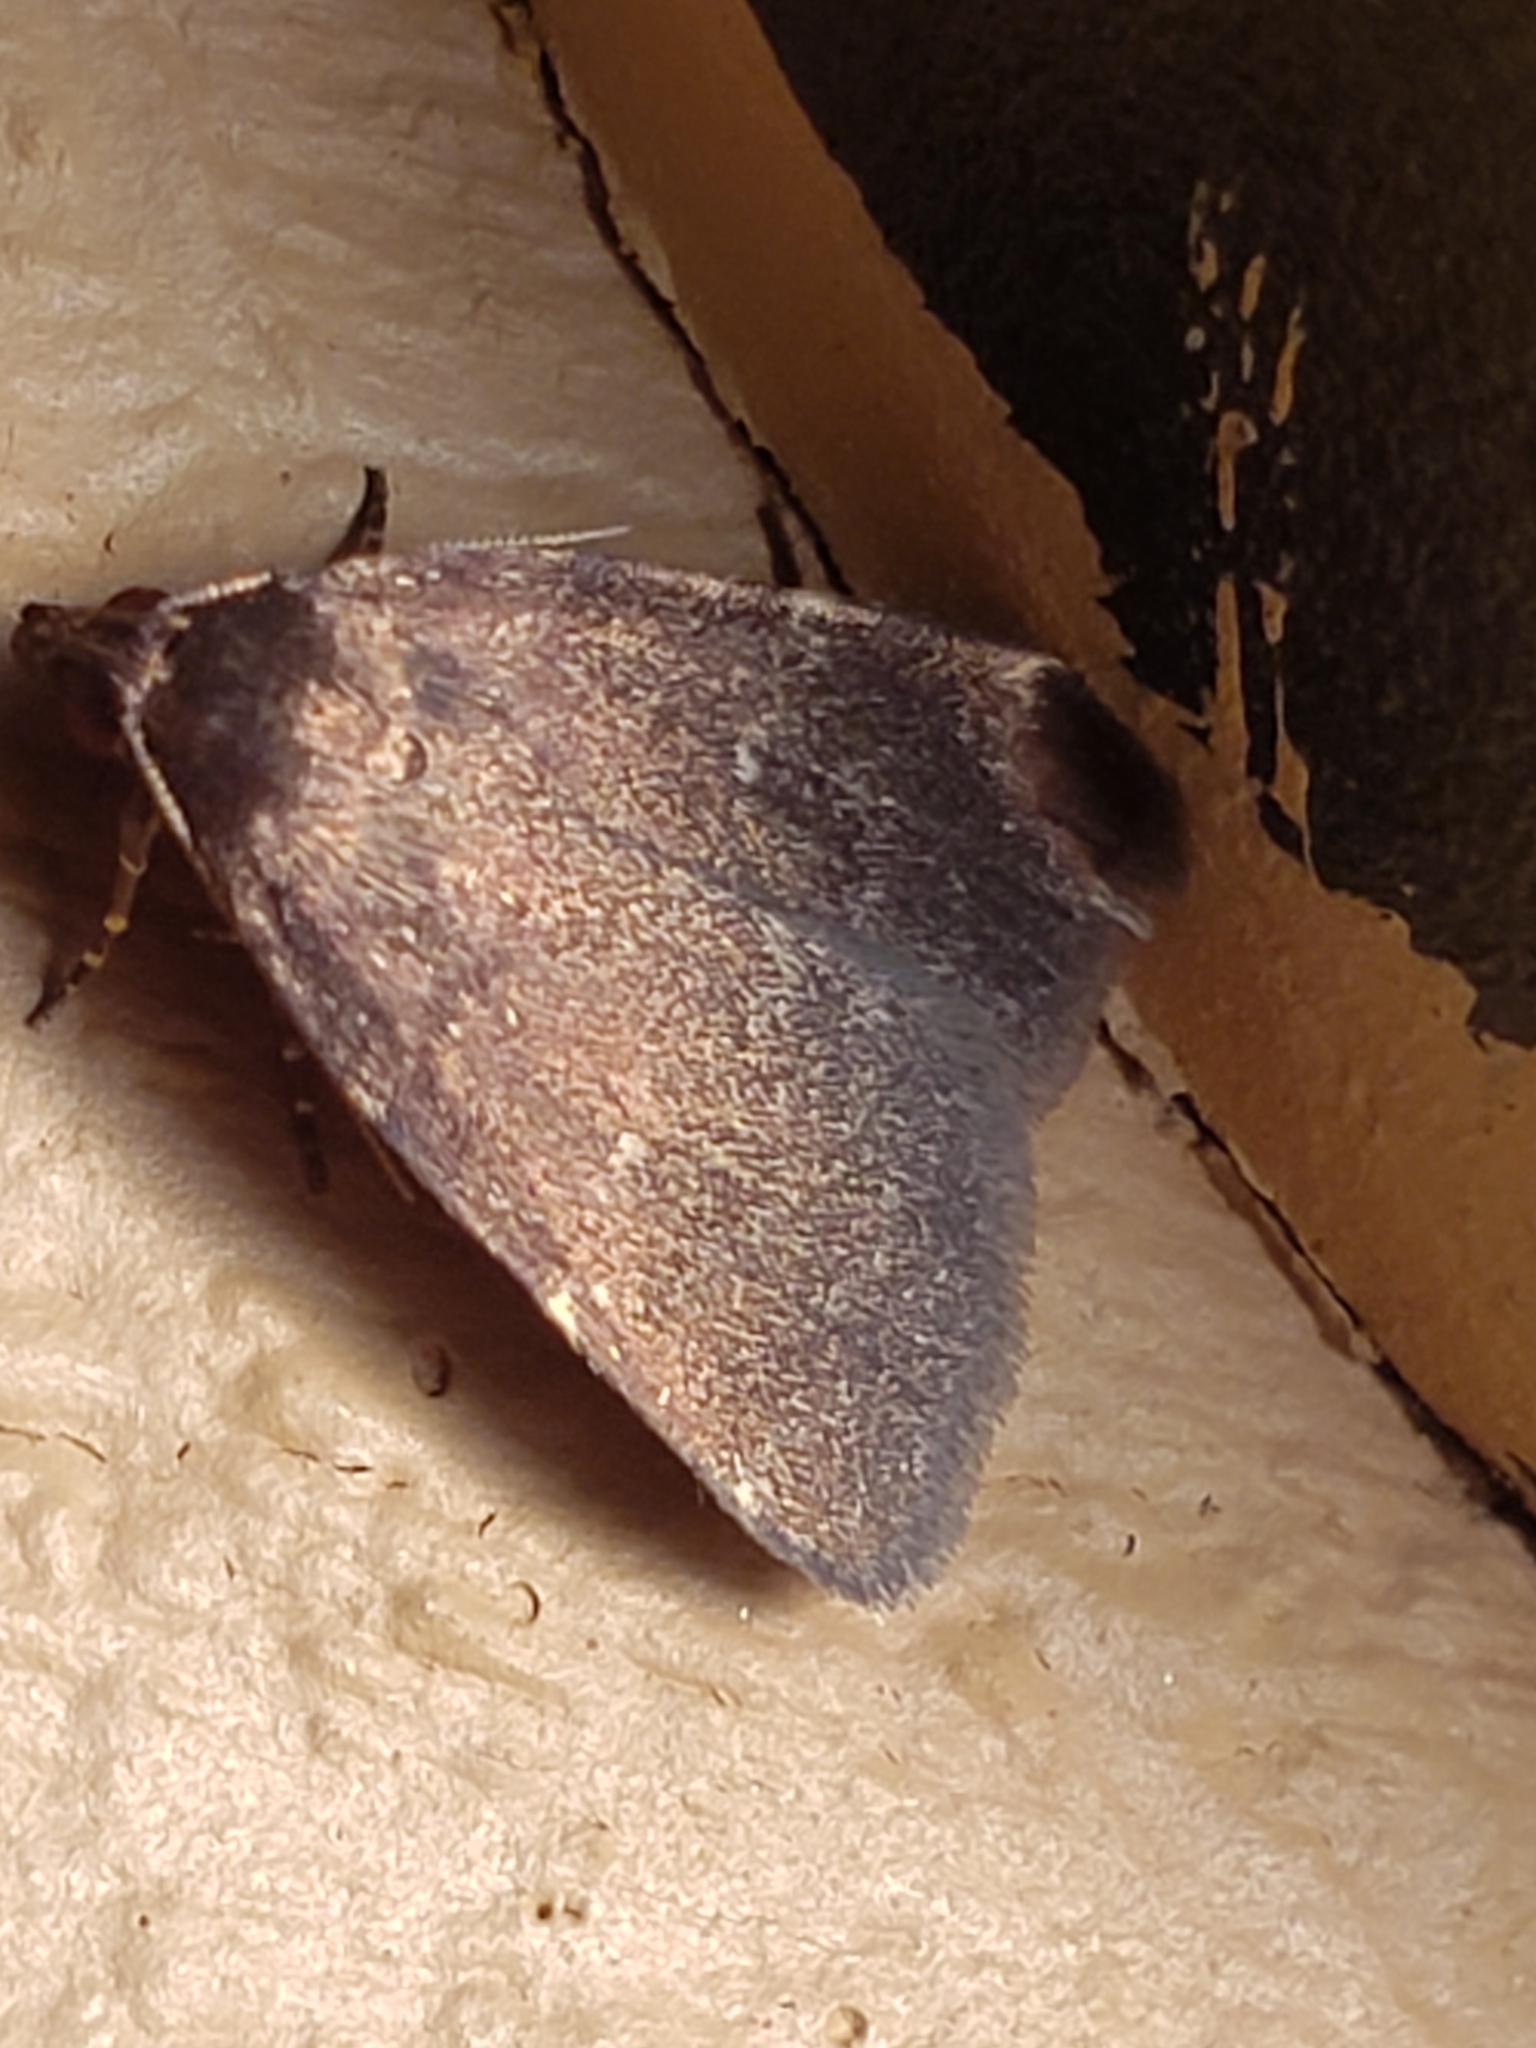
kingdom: Animalia
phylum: Arthropoda
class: Insecta
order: Lepidoptera
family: Erebidae
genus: Idia
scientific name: Idia julia
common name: Julia's idia moth
